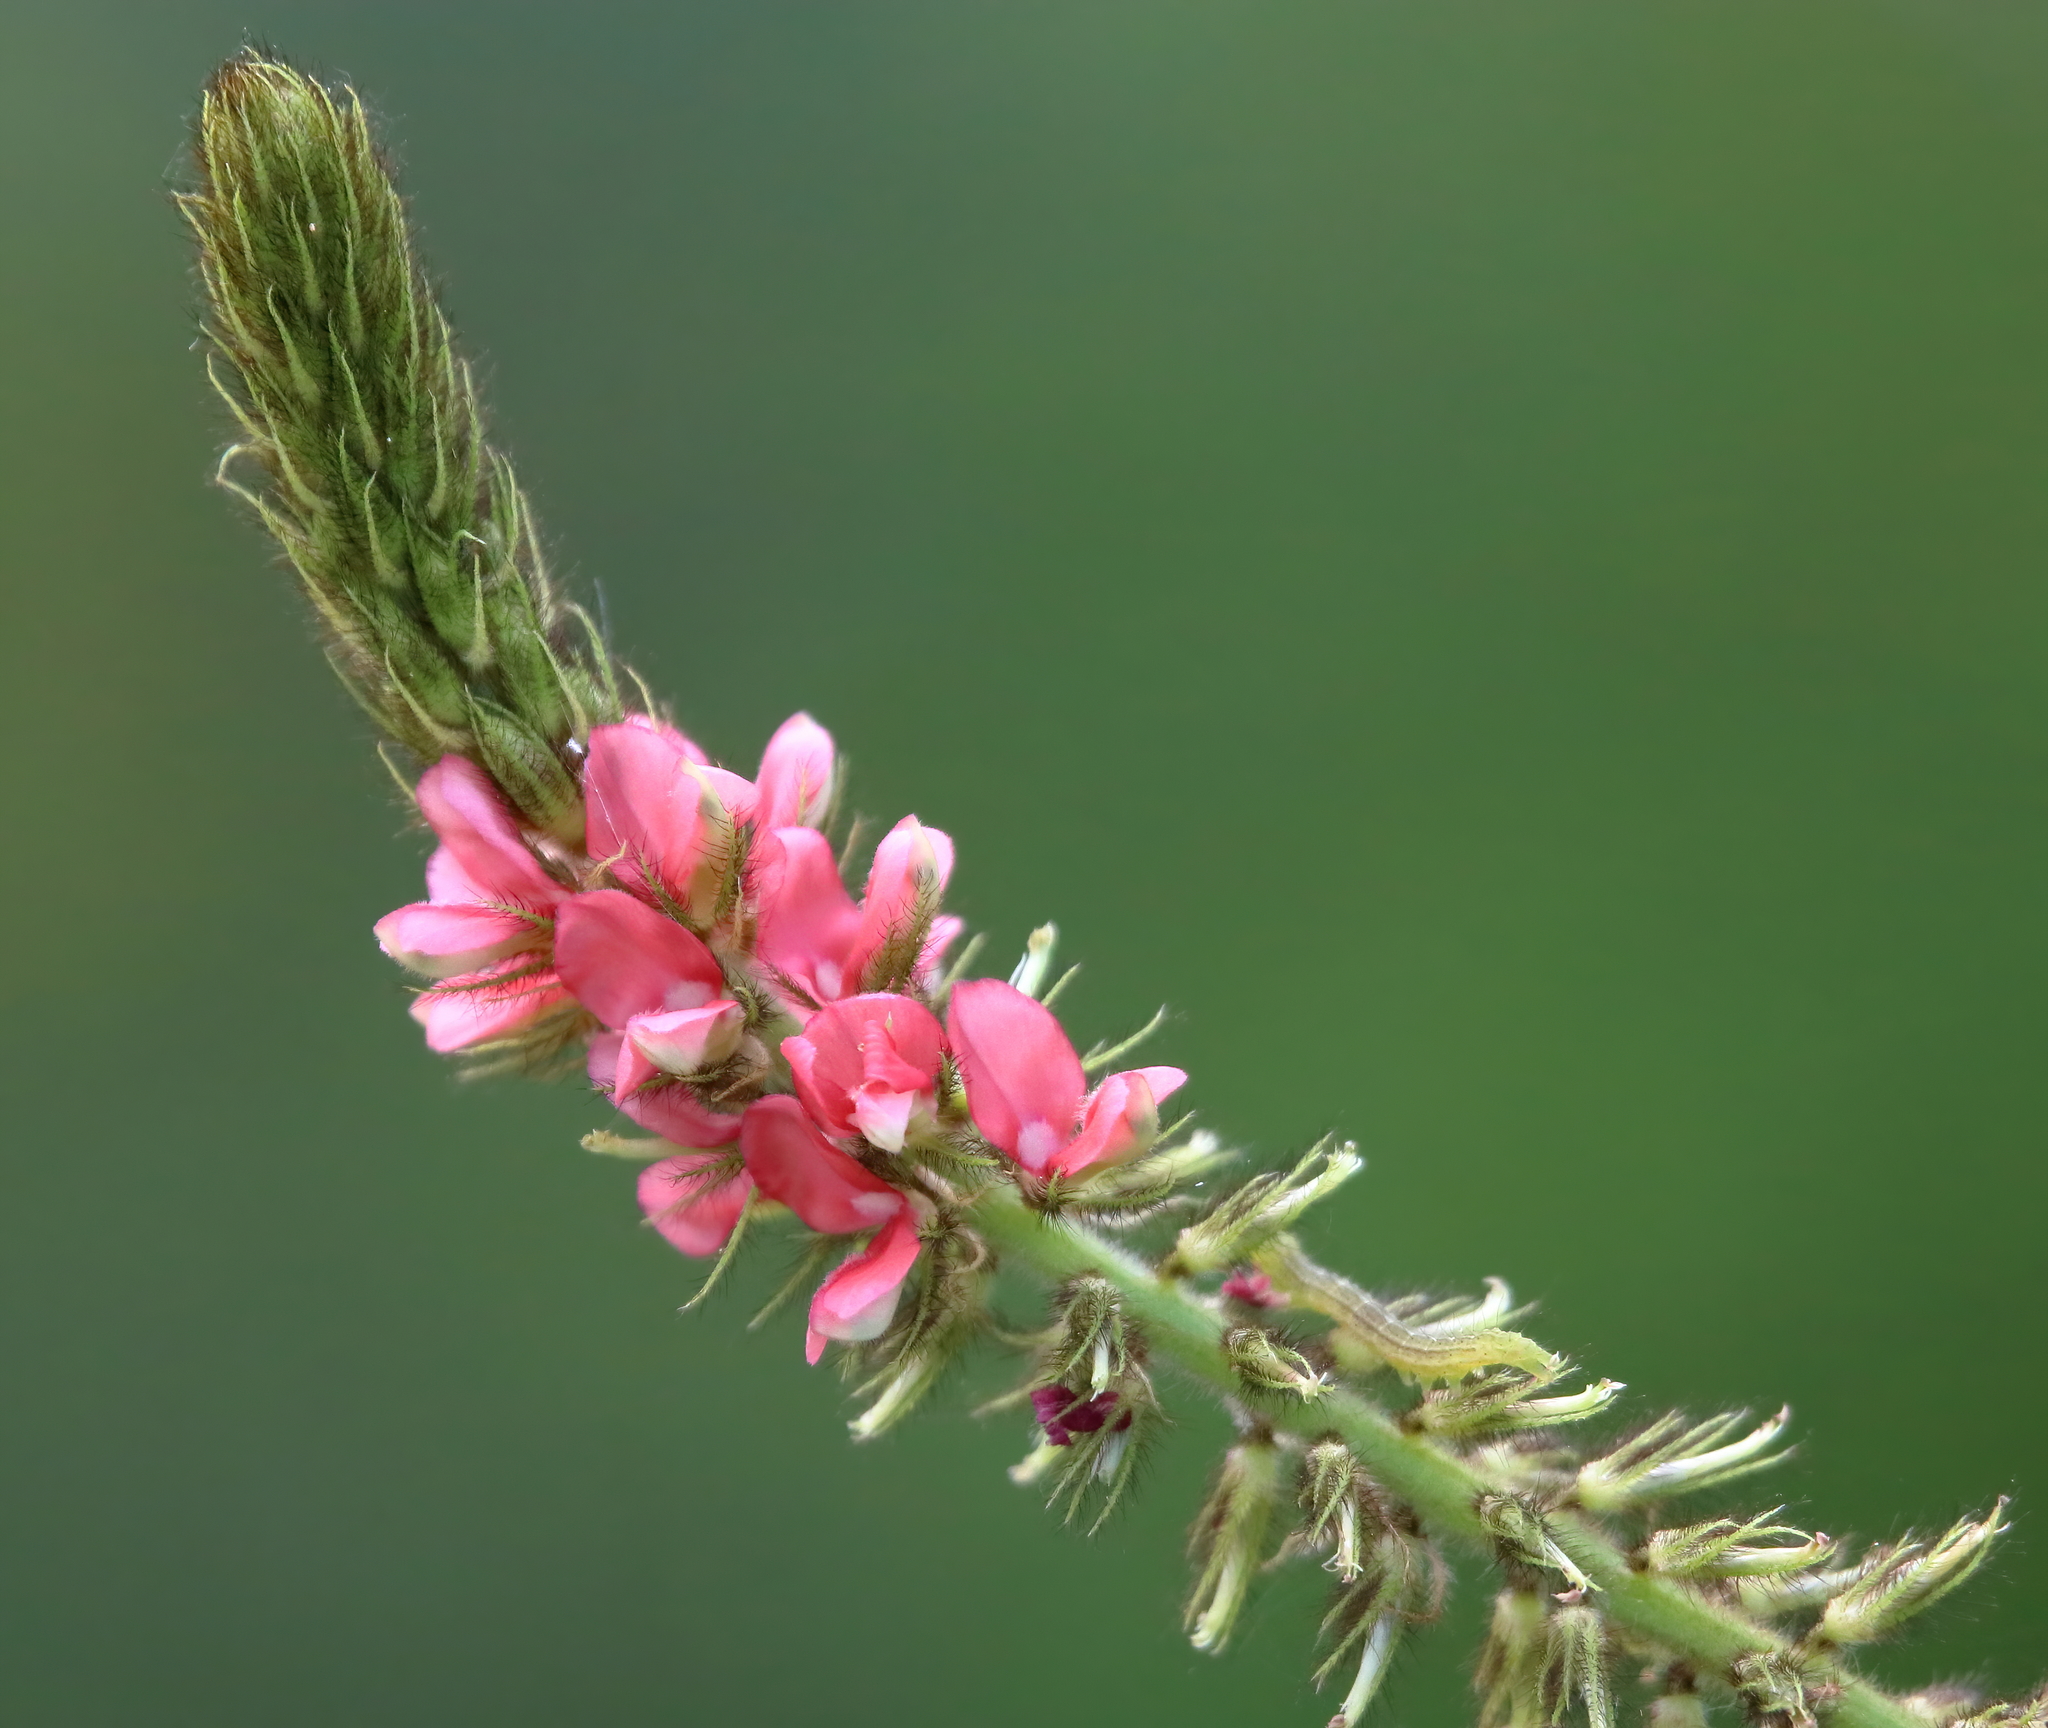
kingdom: Plantae
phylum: Tracheophyta
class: Magnoliopsida
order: Fabales
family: Fabaceae
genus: Indigofera
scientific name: Indigofera hirsuta
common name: Hairy indigo
